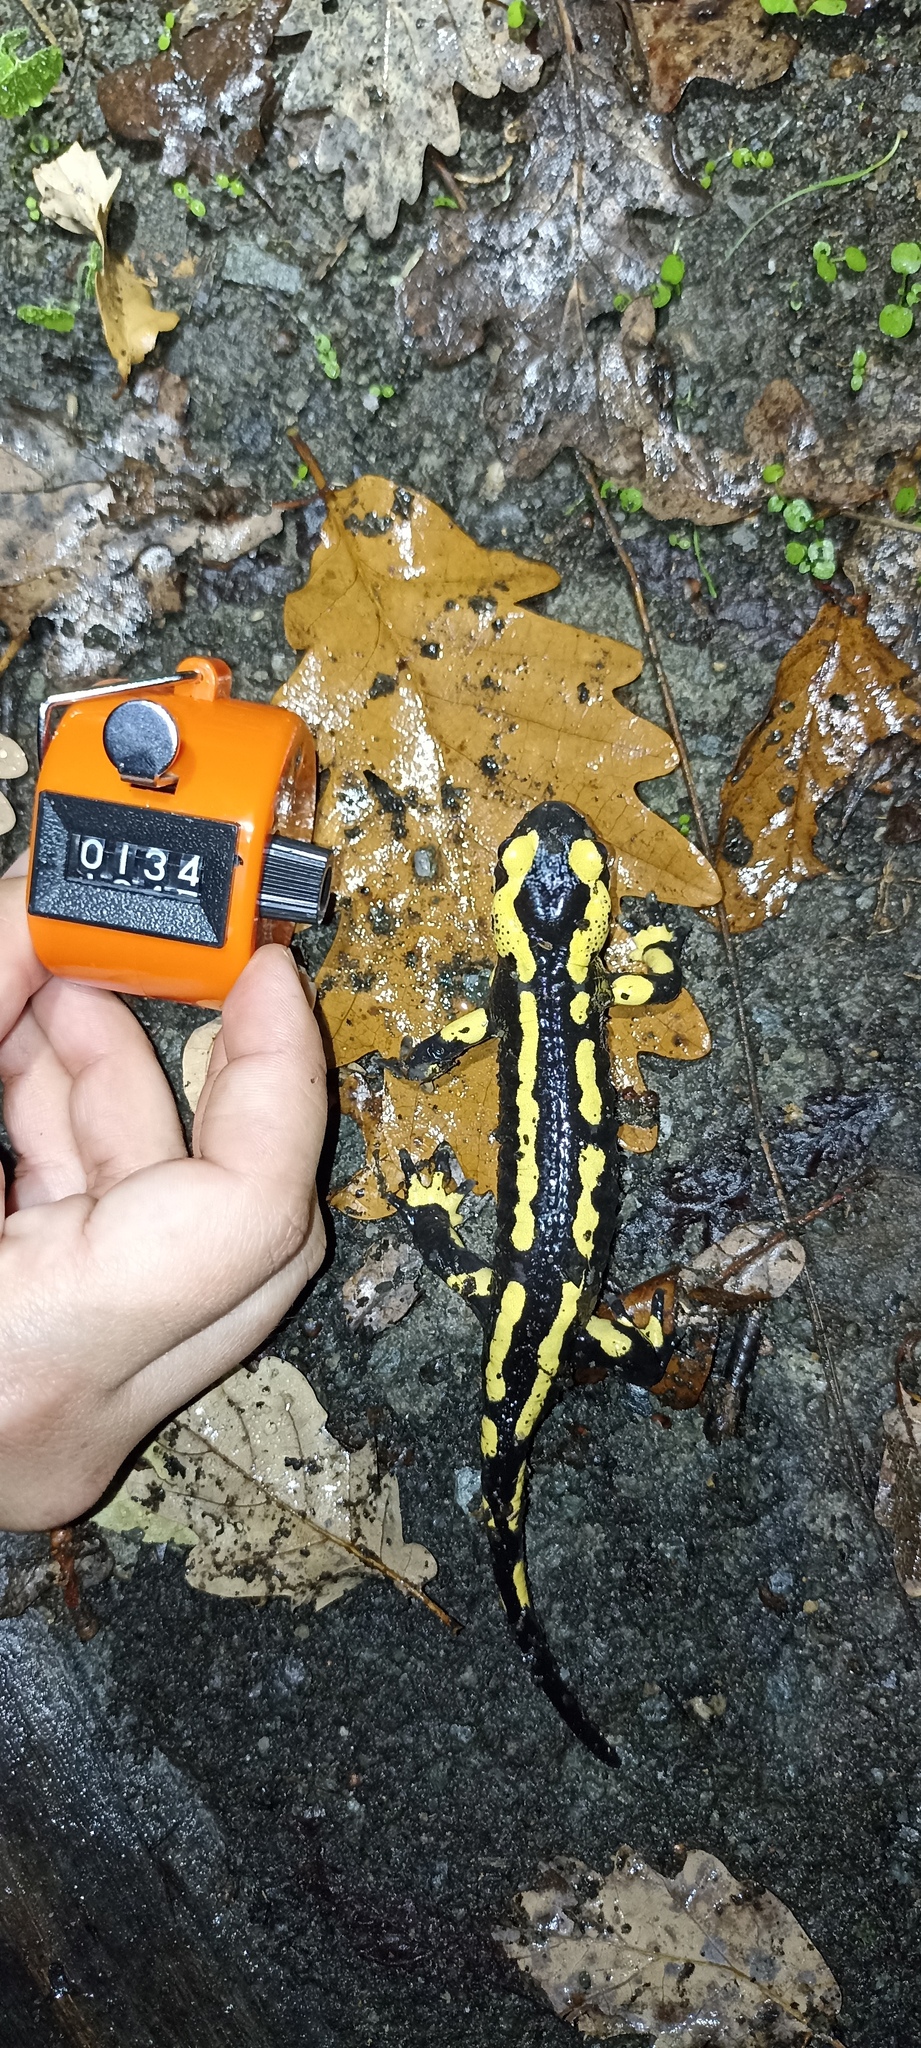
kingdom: Animalia
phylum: Chordata
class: Amphibia
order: Caudata
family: Salamandridae
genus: Salamandra
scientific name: Salamandra salamandra
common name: Fire salamander
